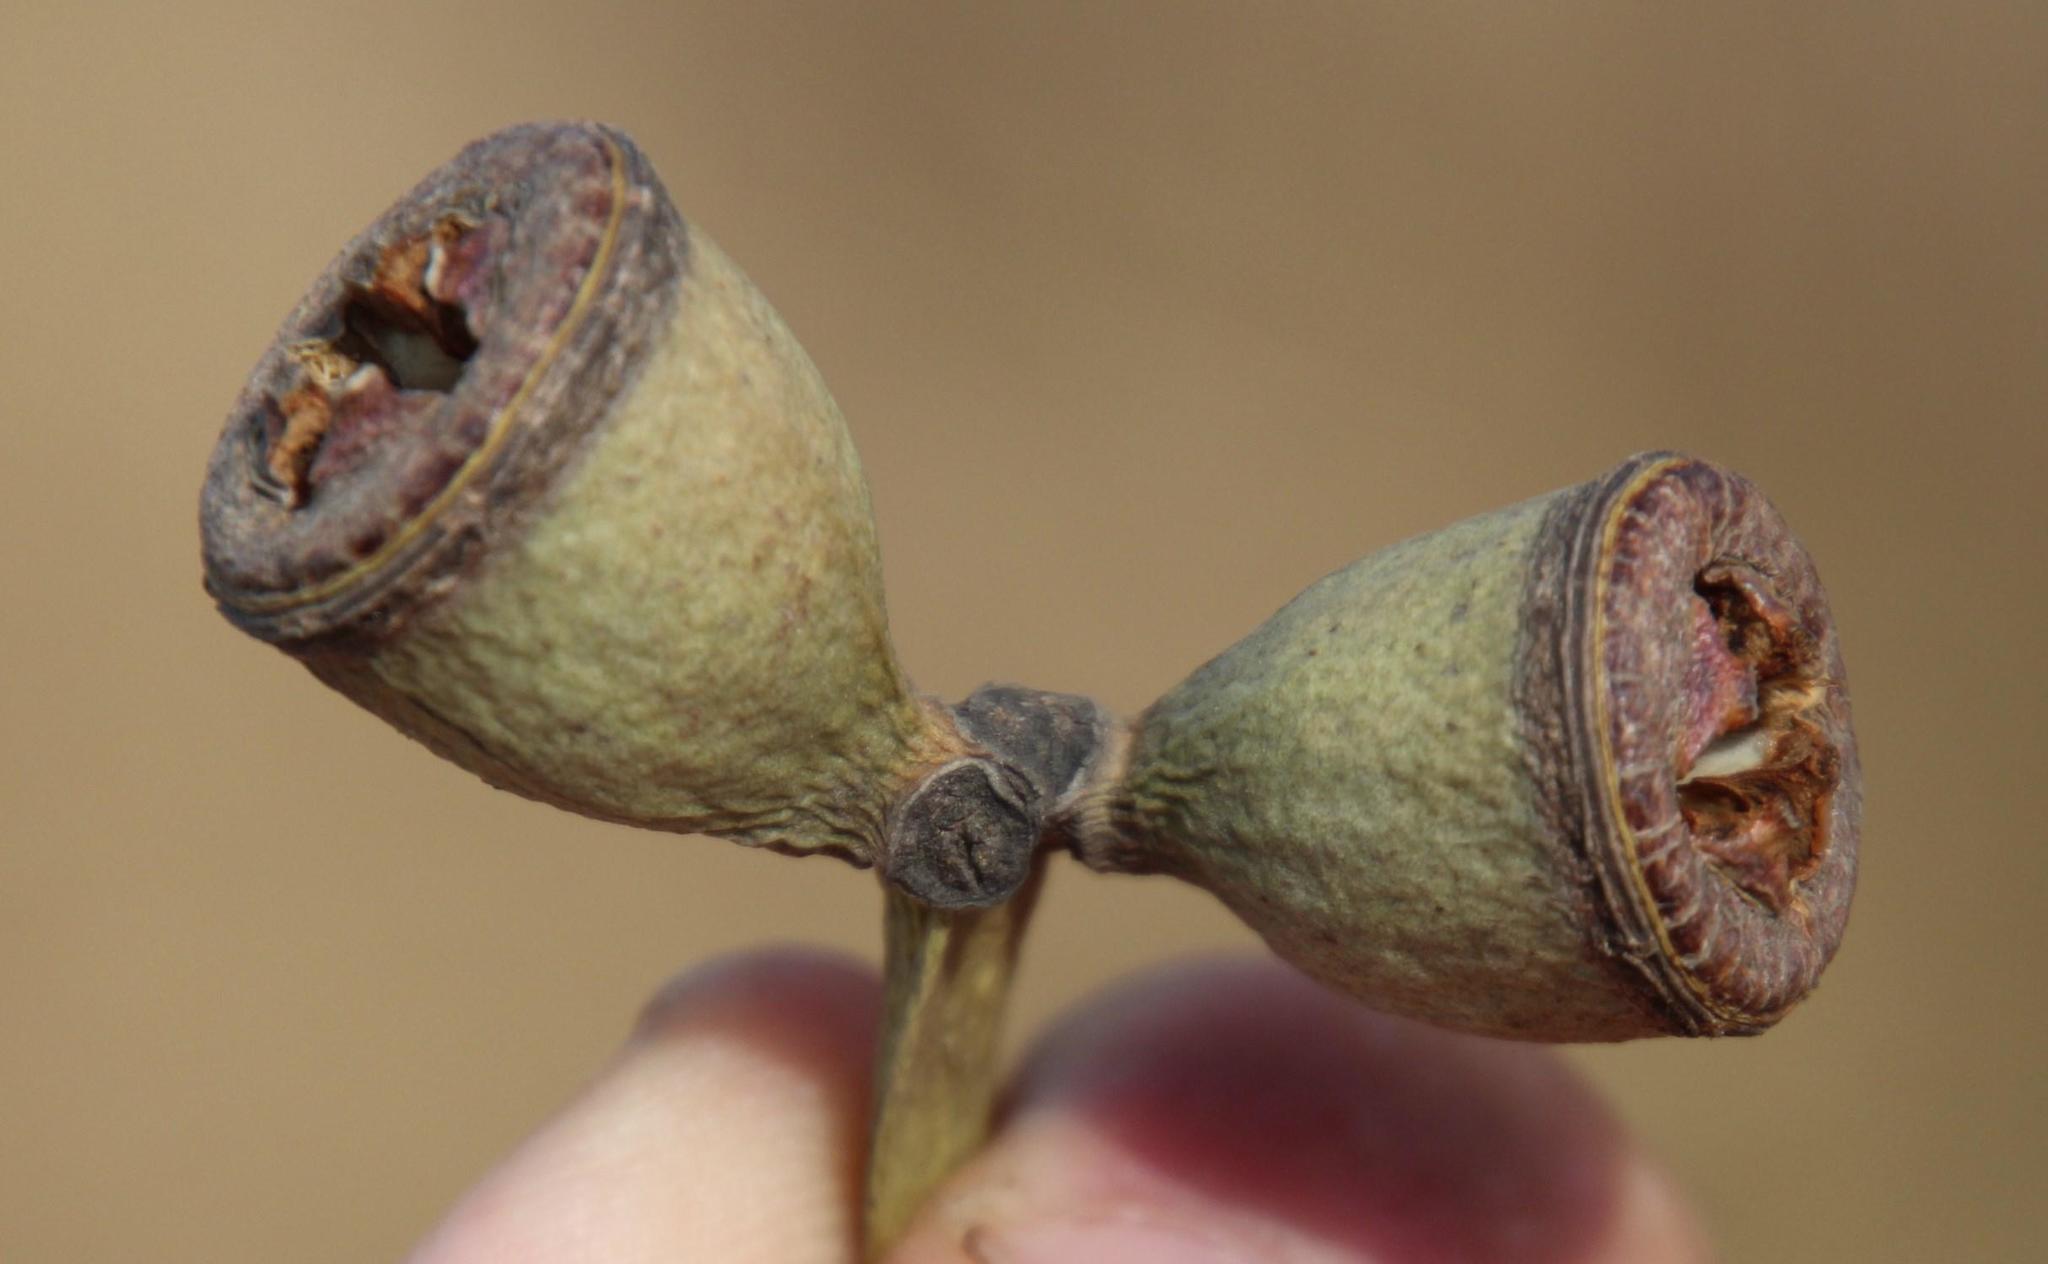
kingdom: Plantae
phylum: Tracheophyta
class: Magnoliopsida
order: Myrtales
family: Myrtaceae
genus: Eucalyptus
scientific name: Eucalyptus gomphocephala
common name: Tuart
